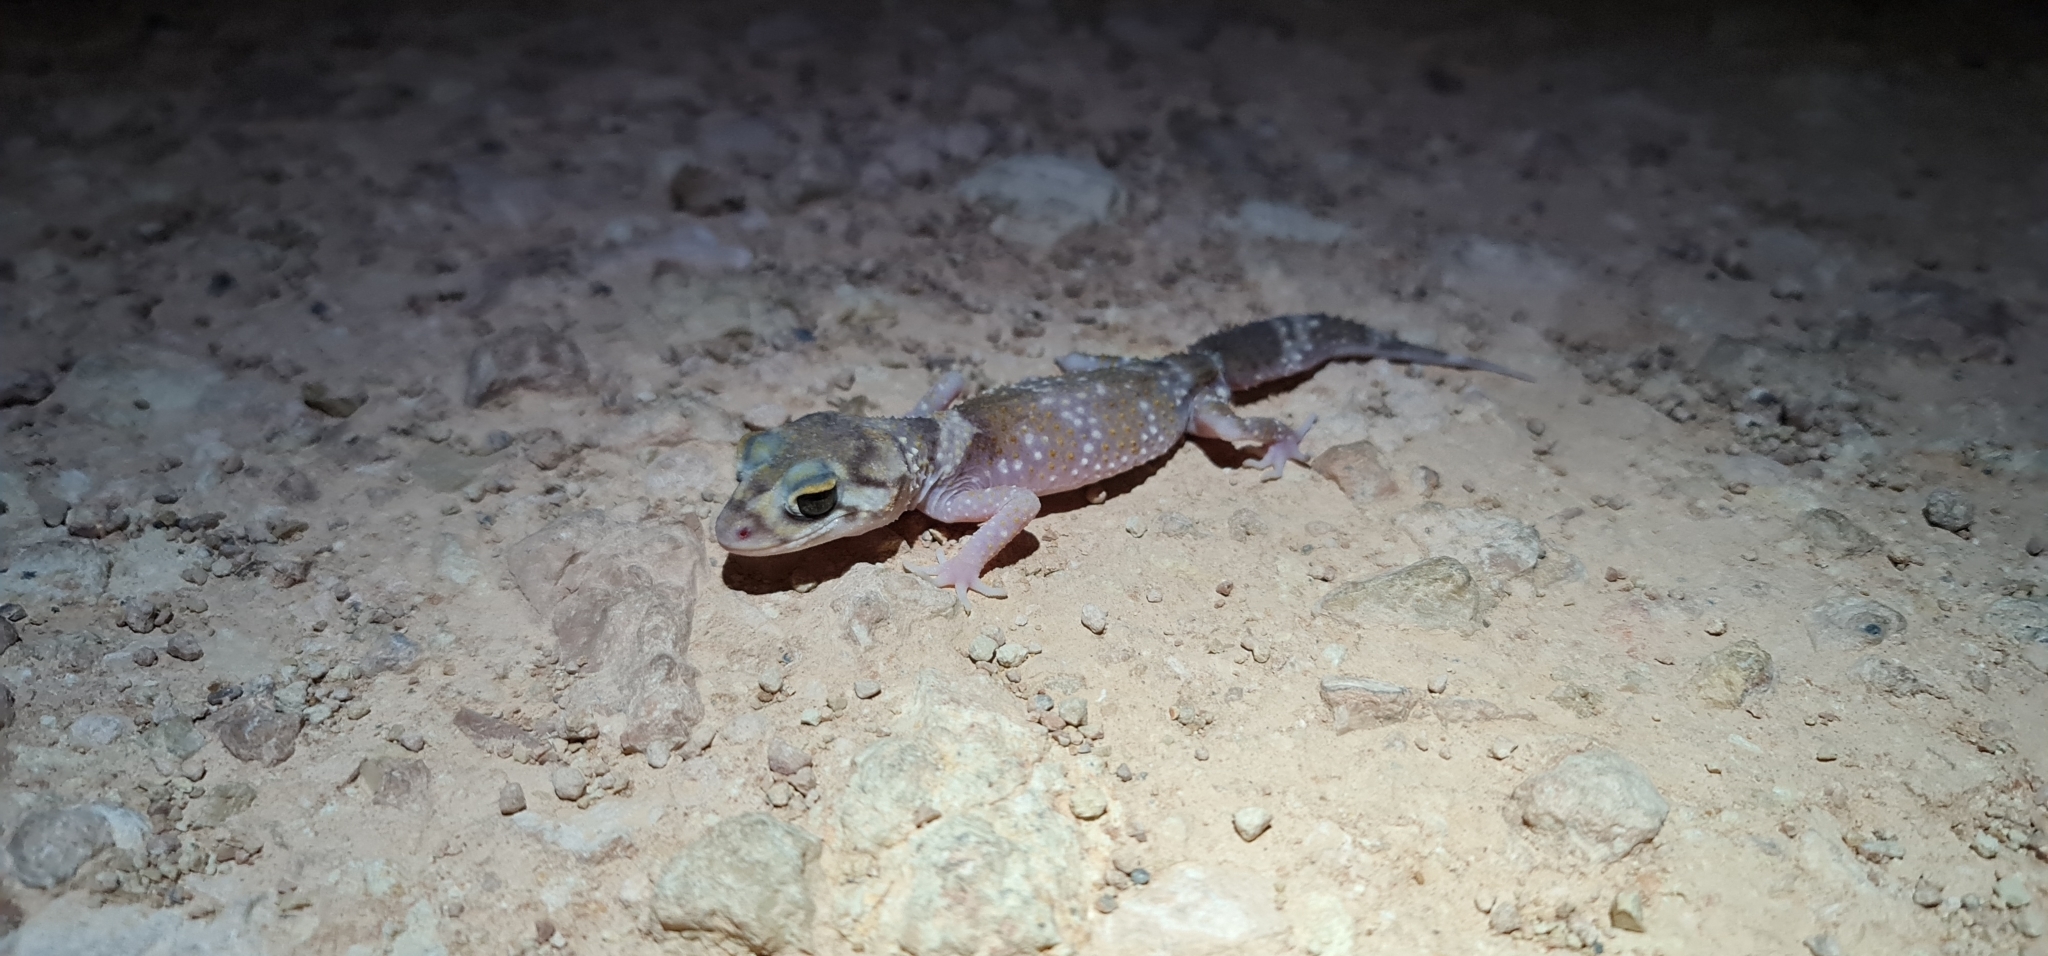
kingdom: Animalia
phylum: Chordata
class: Squamata
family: Carphodactylidae
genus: Underwoodisaurus
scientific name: Underwoodisaurus milii
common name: Barking gecko
